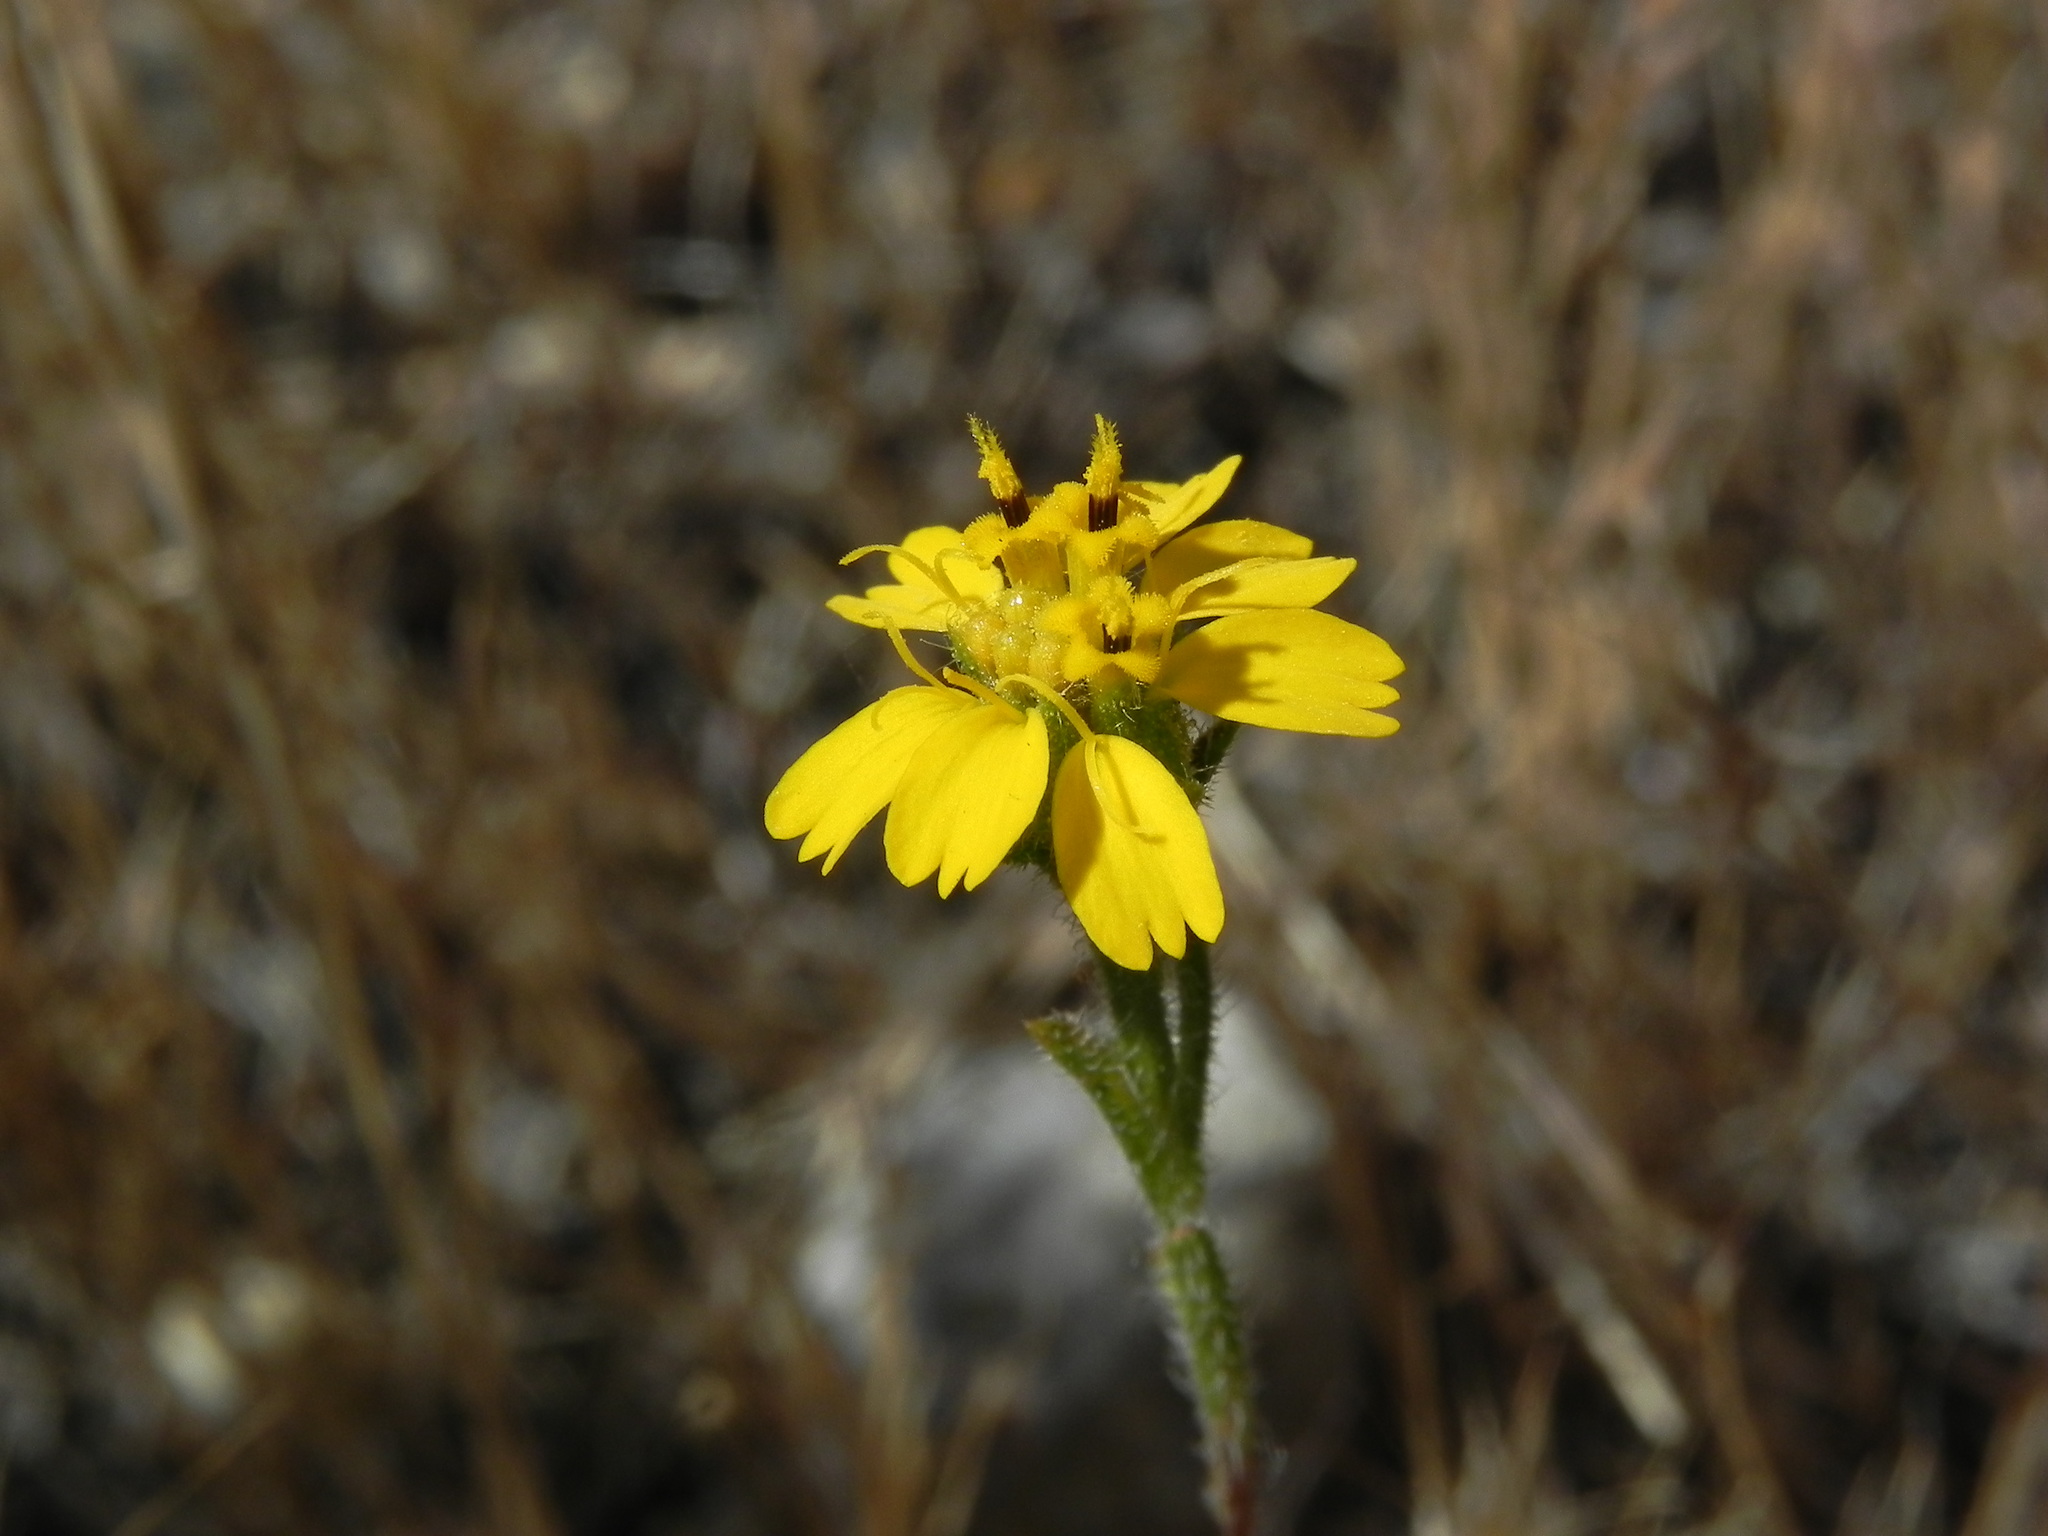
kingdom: Plantae
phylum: Tracheophyta
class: Magnoliopsida
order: Asterales
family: Asteraceae
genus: Deinandra
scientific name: Deinandra conjugens
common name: Otay tarplant
